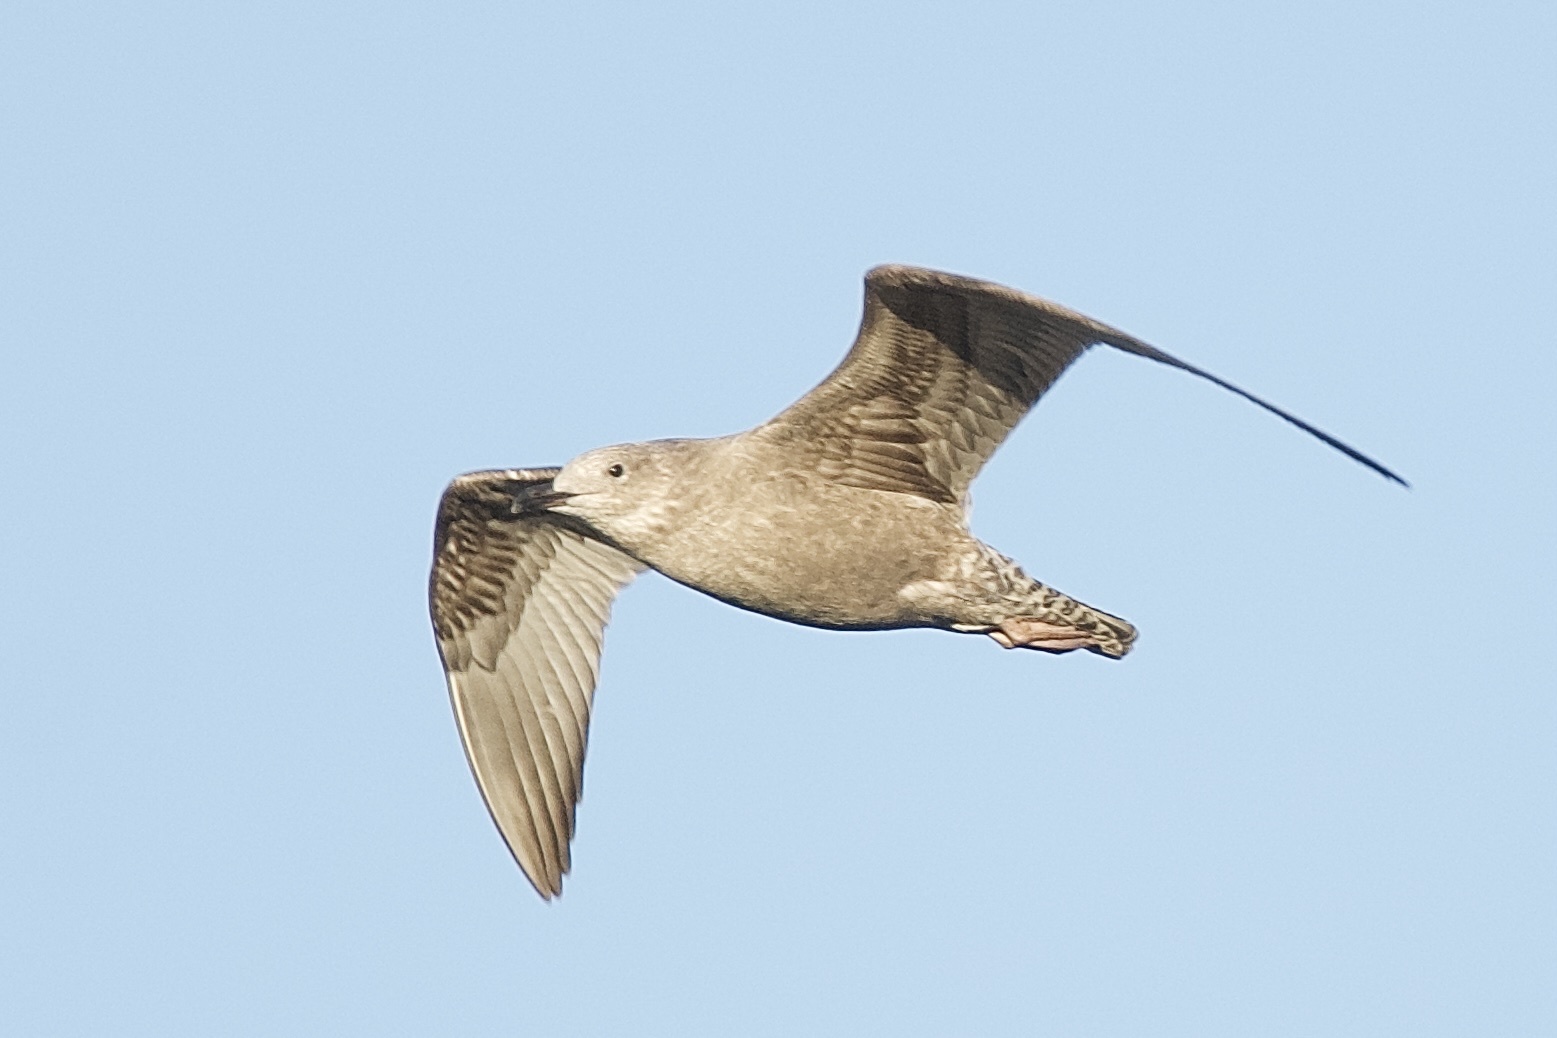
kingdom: Animalia
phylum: Chordata
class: Aves
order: Charadriiformes
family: Laridae
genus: Larus
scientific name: Larus argentatus
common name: Herring gull
